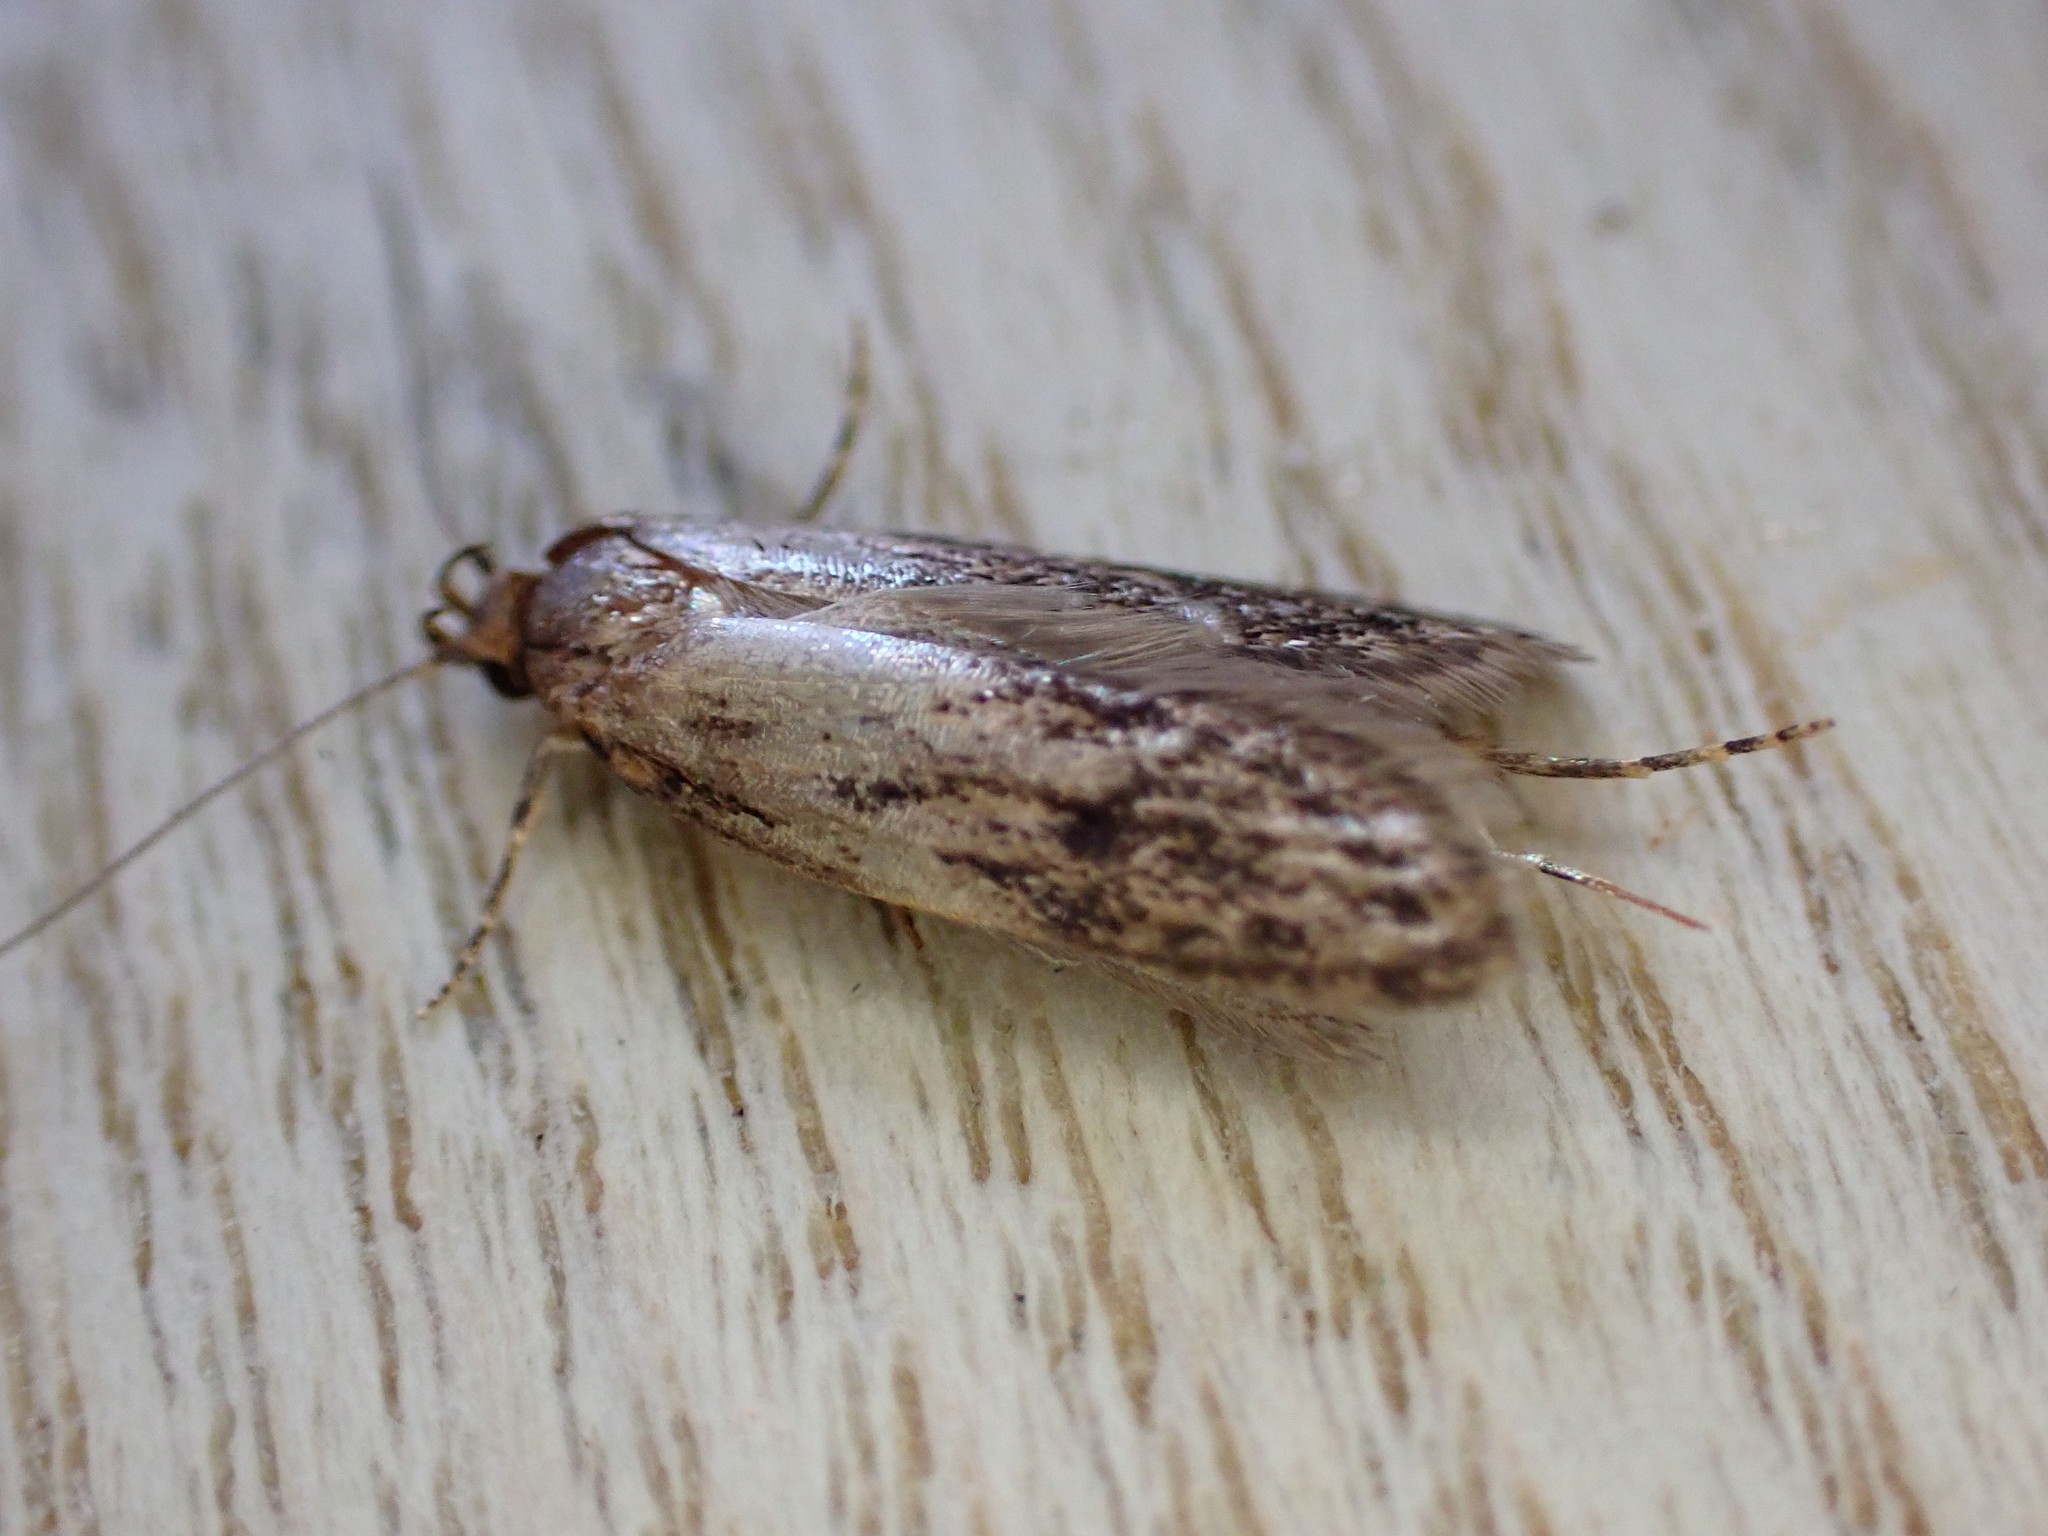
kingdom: Animalia
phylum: Arthropoda
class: Insecta
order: Lepidoptera
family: Oecophoridae
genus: Hofmannophila
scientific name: Hofmannophila pseudospretella
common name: Brown house moth
